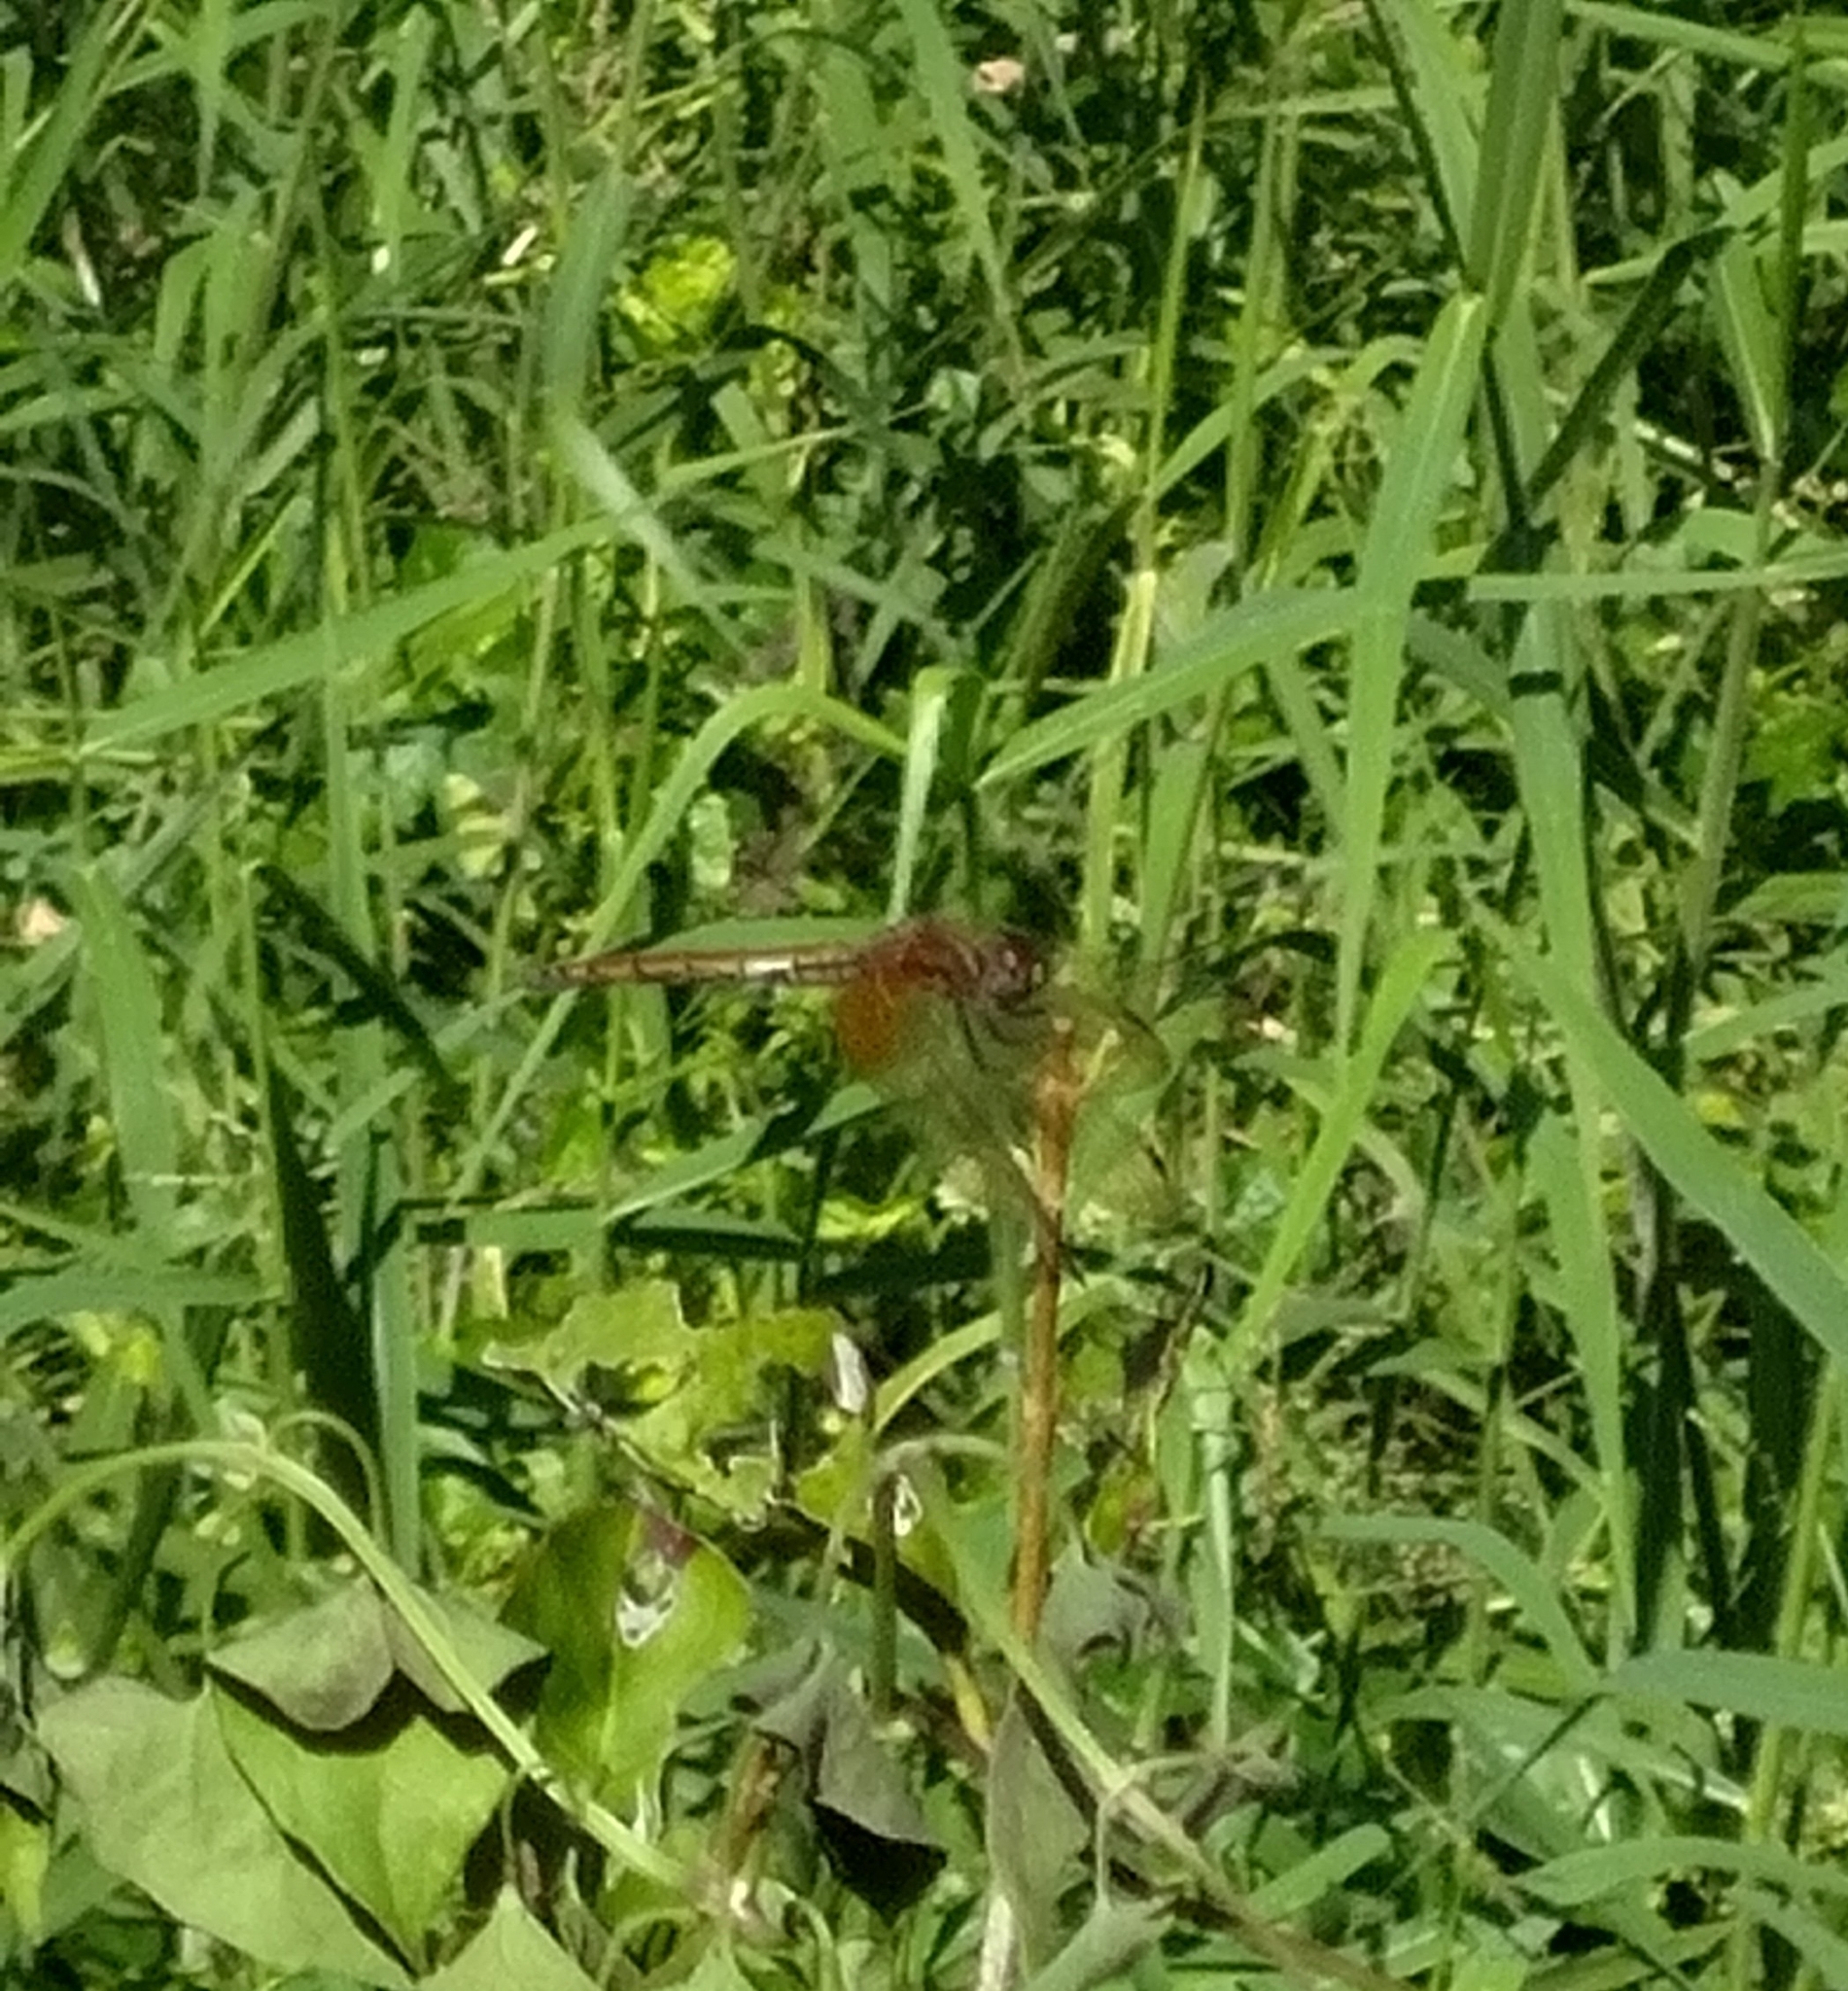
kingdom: Animalia
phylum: Arthropoda
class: Insecta
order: Odonata
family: Libellulidae
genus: Trithemis
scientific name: Trithemis aurora
